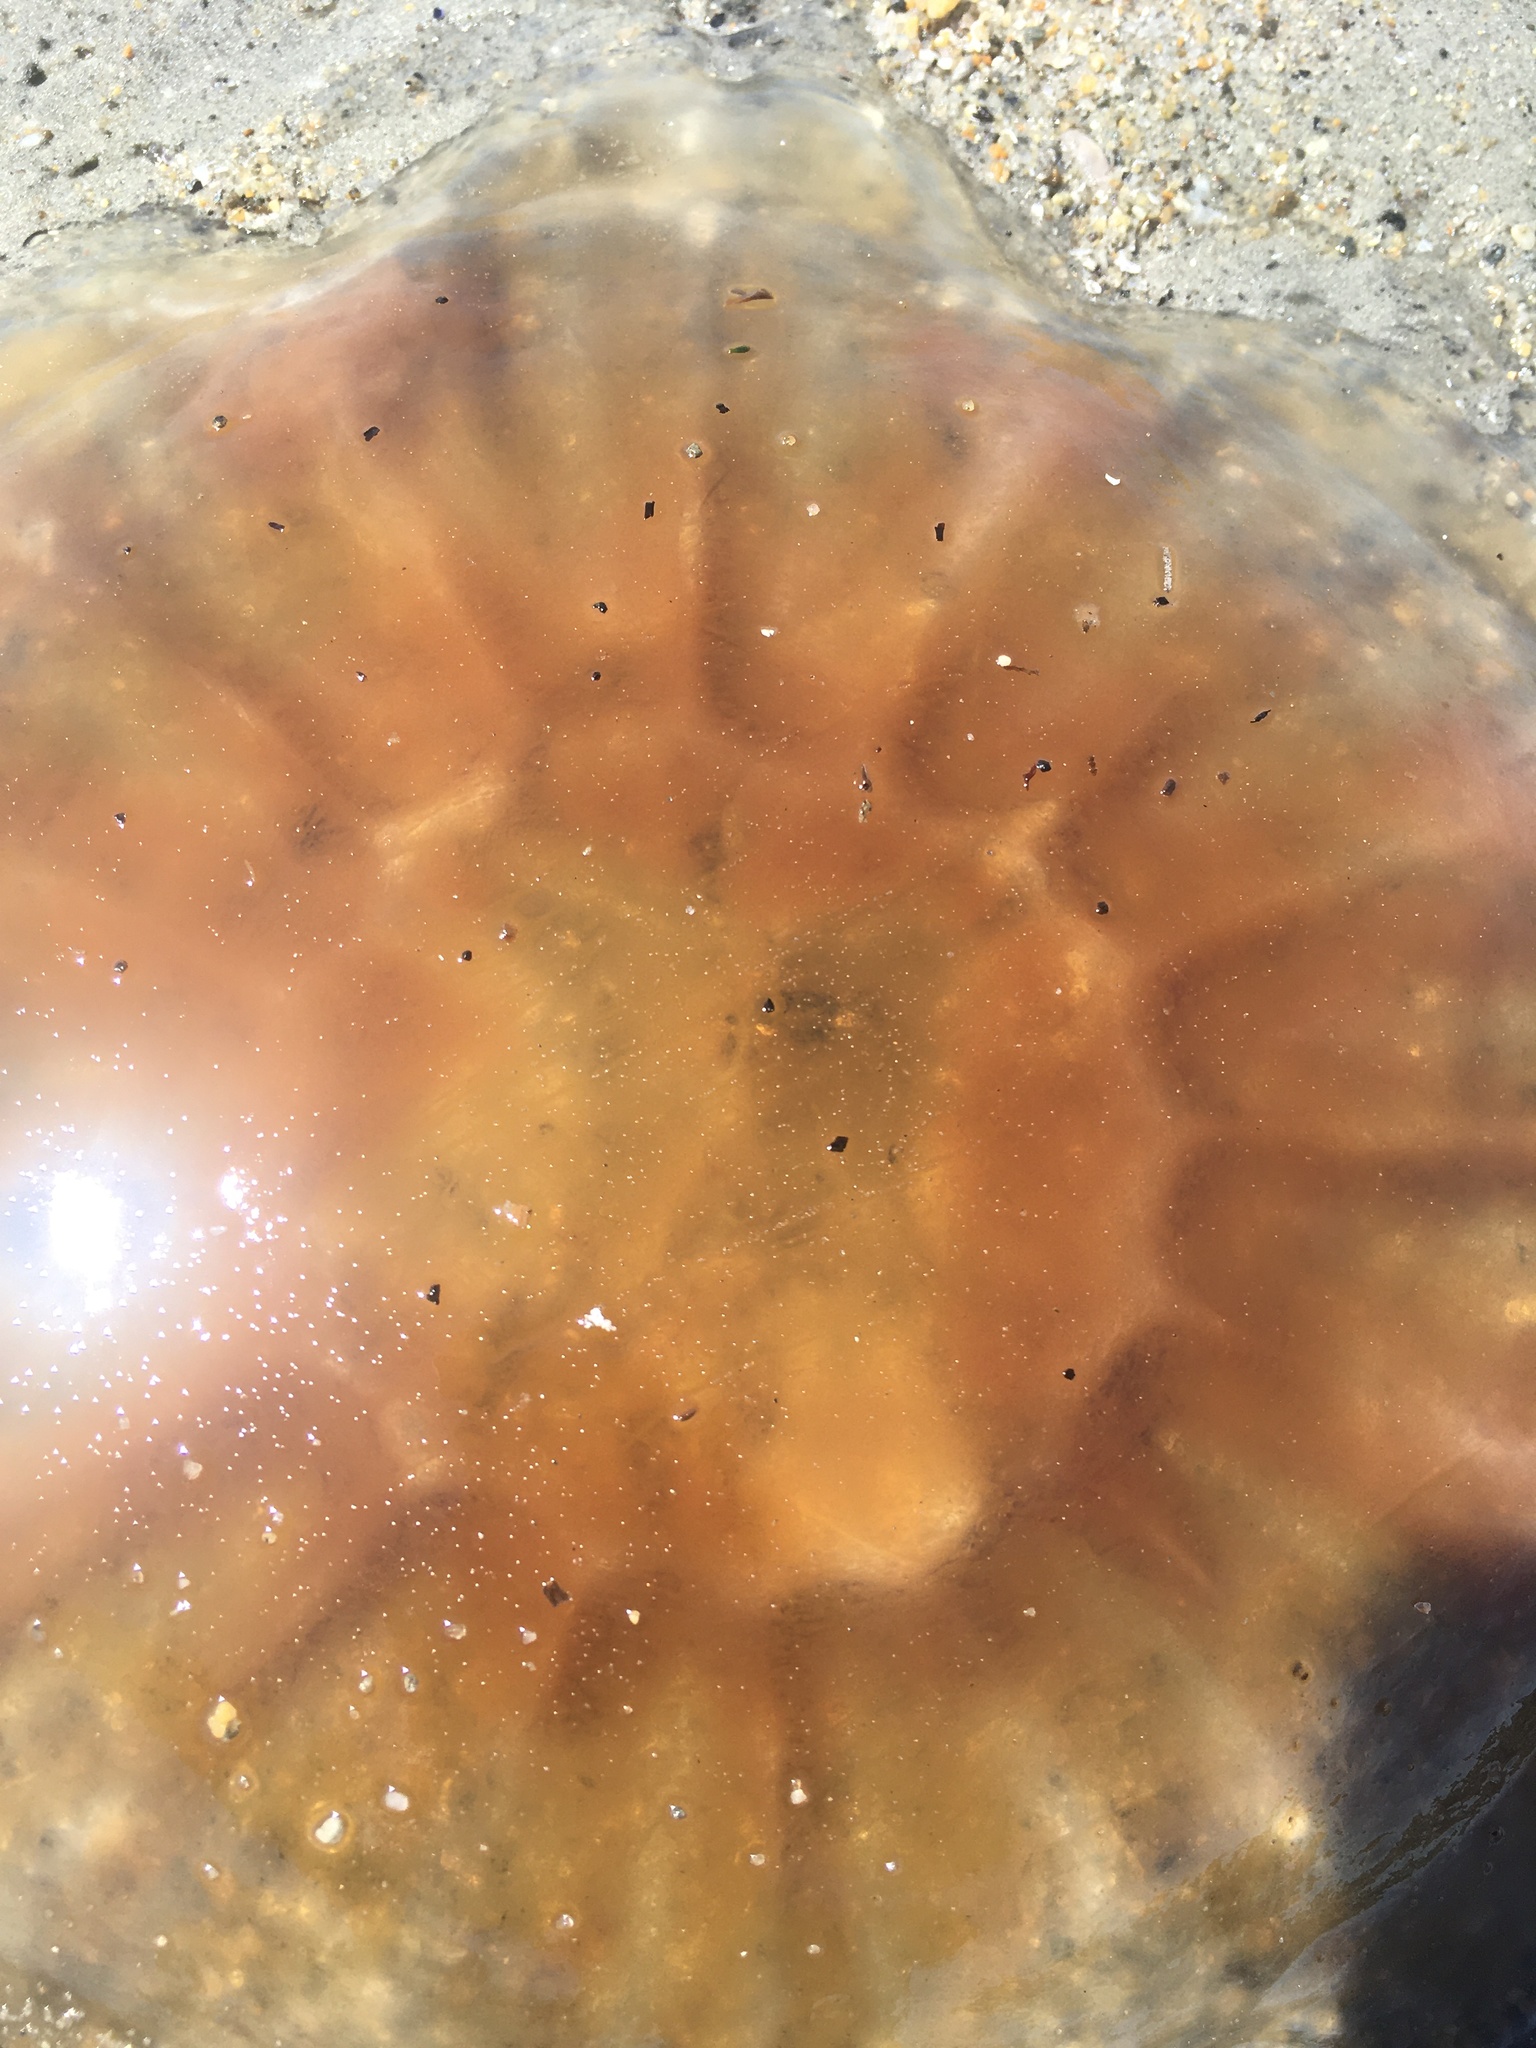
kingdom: Animalia
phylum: Cnidaria
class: Scyphozoa
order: Semaeostomeae
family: Cyaneidae
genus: Cyanea
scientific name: Cyanea fulva
